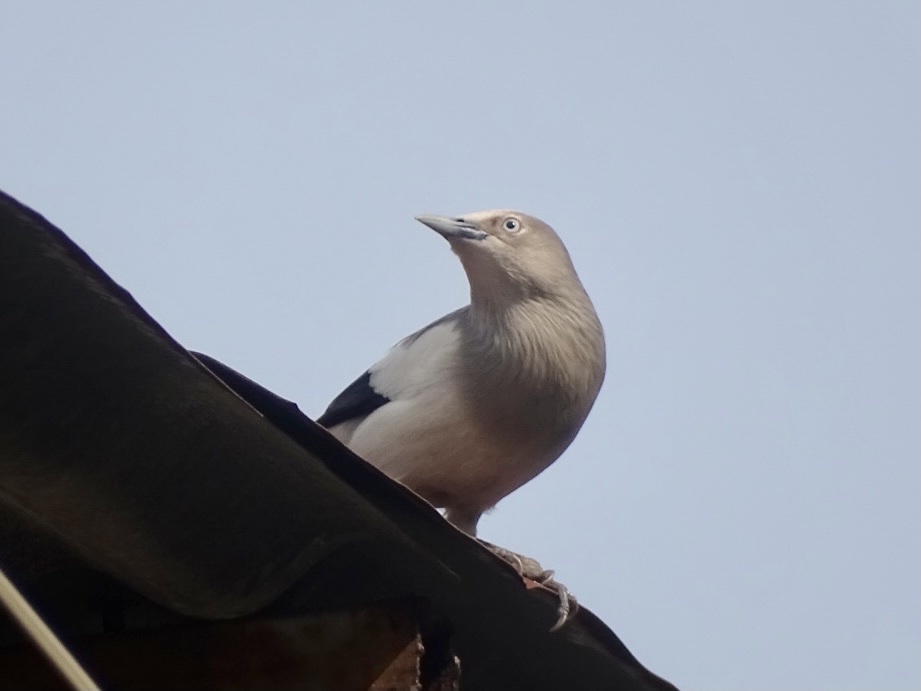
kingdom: Animalia
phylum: Chordata
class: Aves
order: Passeriformes
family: Sturnidae
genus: Sturnia
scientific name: Sturnia sinensis
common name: White-shouldered starling
